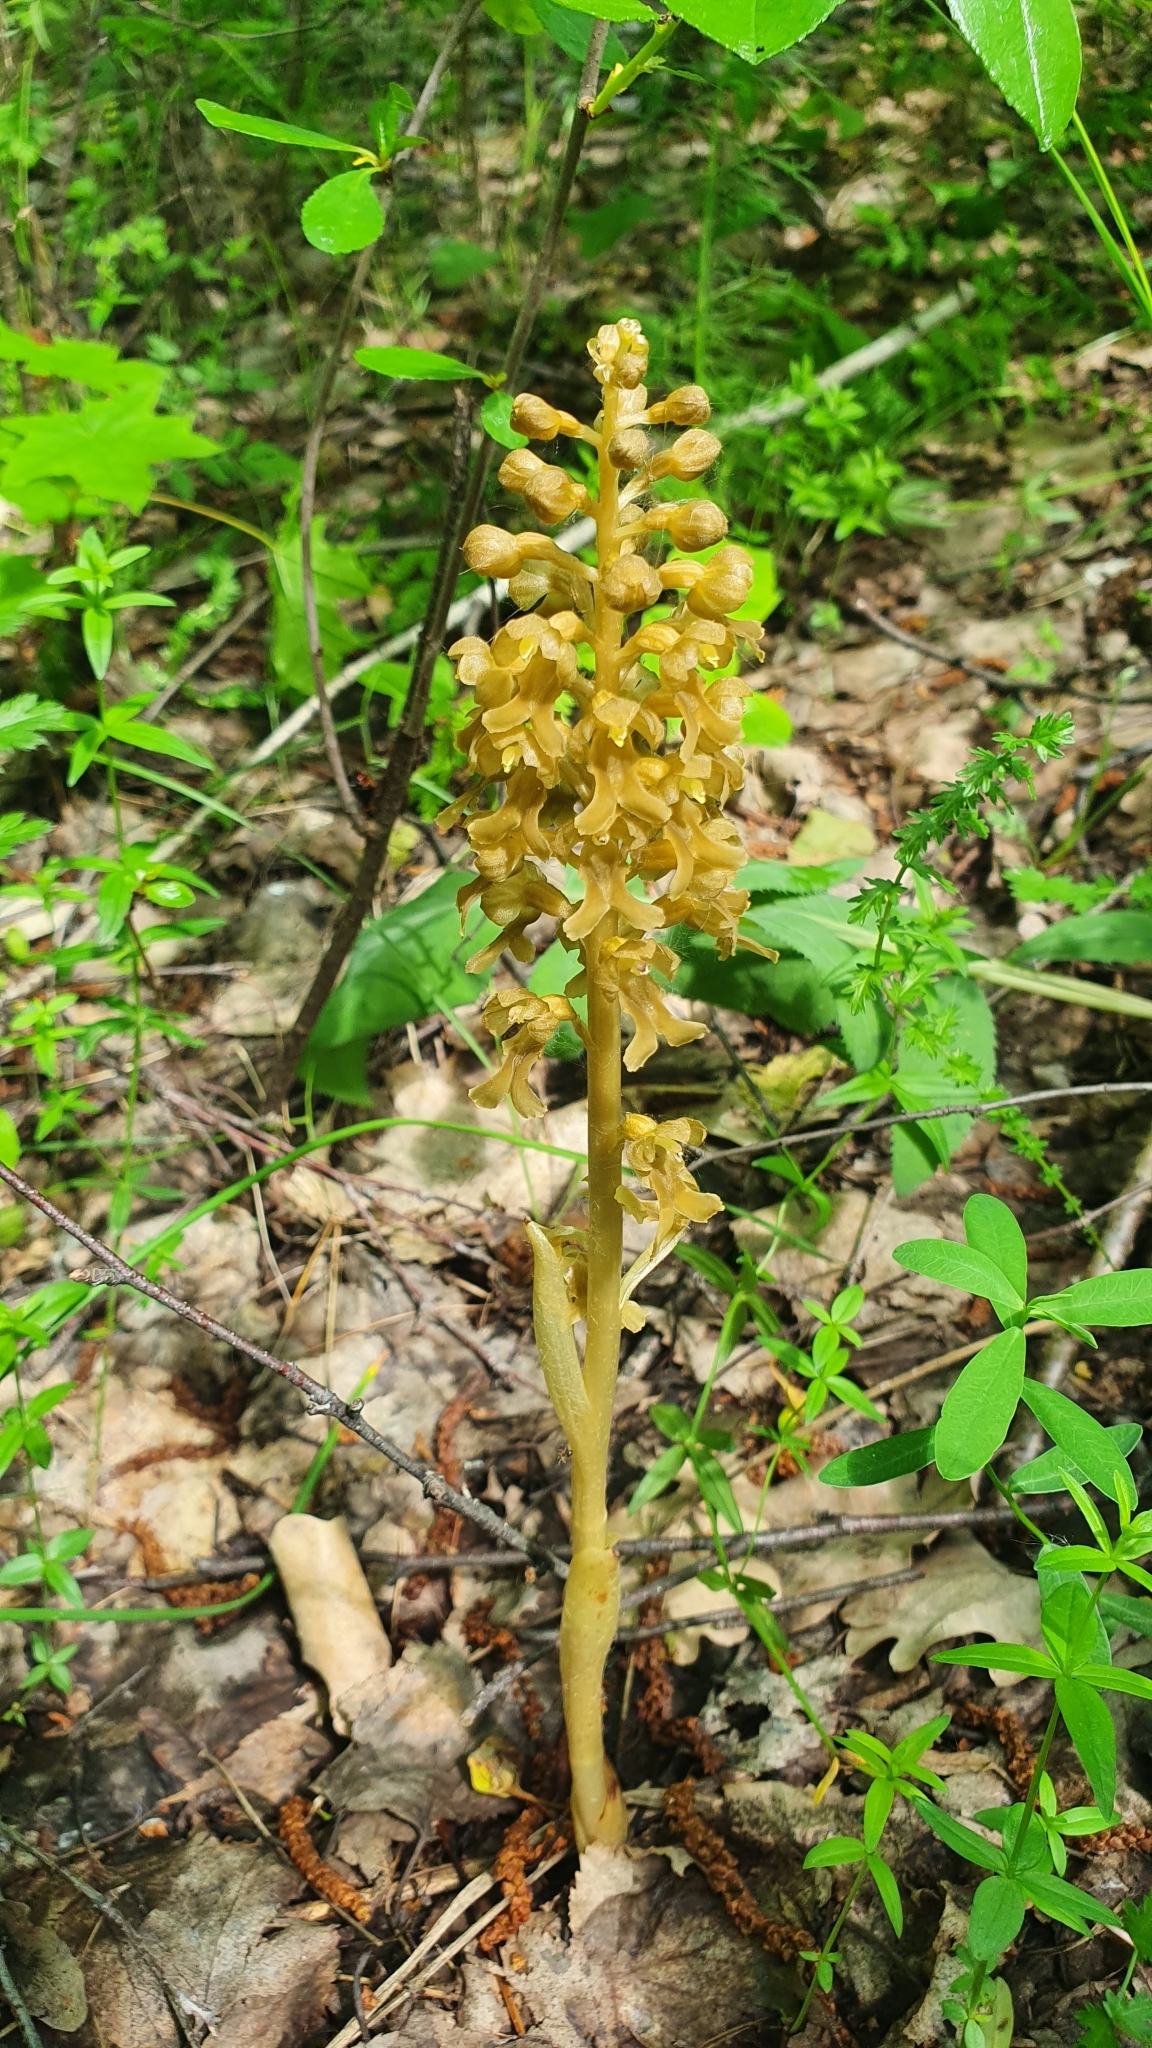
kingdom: Plantae
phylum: Tracheophyta
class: Liliopsida
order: Asparagales
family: Orchidaceae
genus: Neottia
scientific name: Neottia nidus-avis
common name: Bird's-nest orchid
